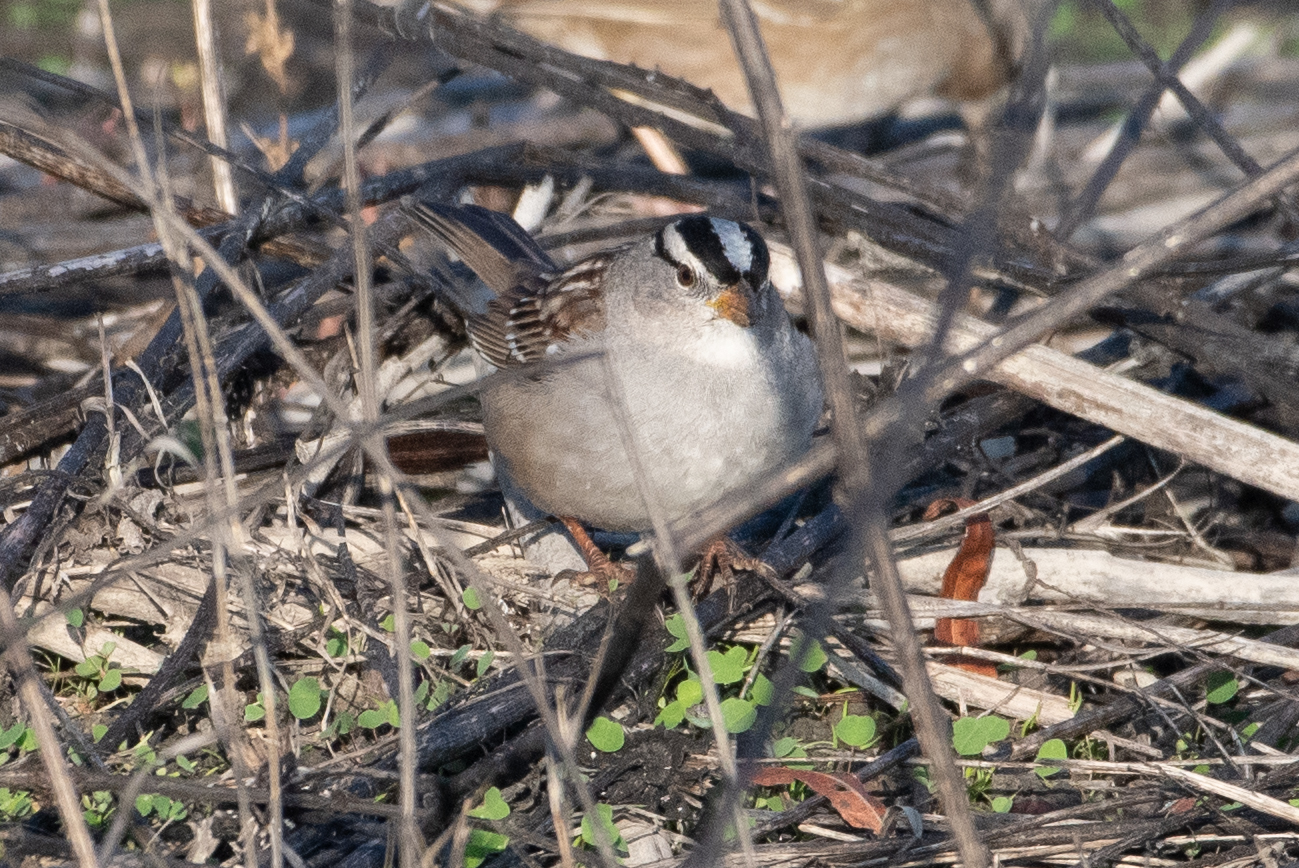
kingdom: Animalia
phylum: Chordata
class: Aves
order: Passeriformes
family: Passerellidae
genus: Zonotrichia
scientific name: Zonotrichia leucophrys
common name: White-crowned sparrow
